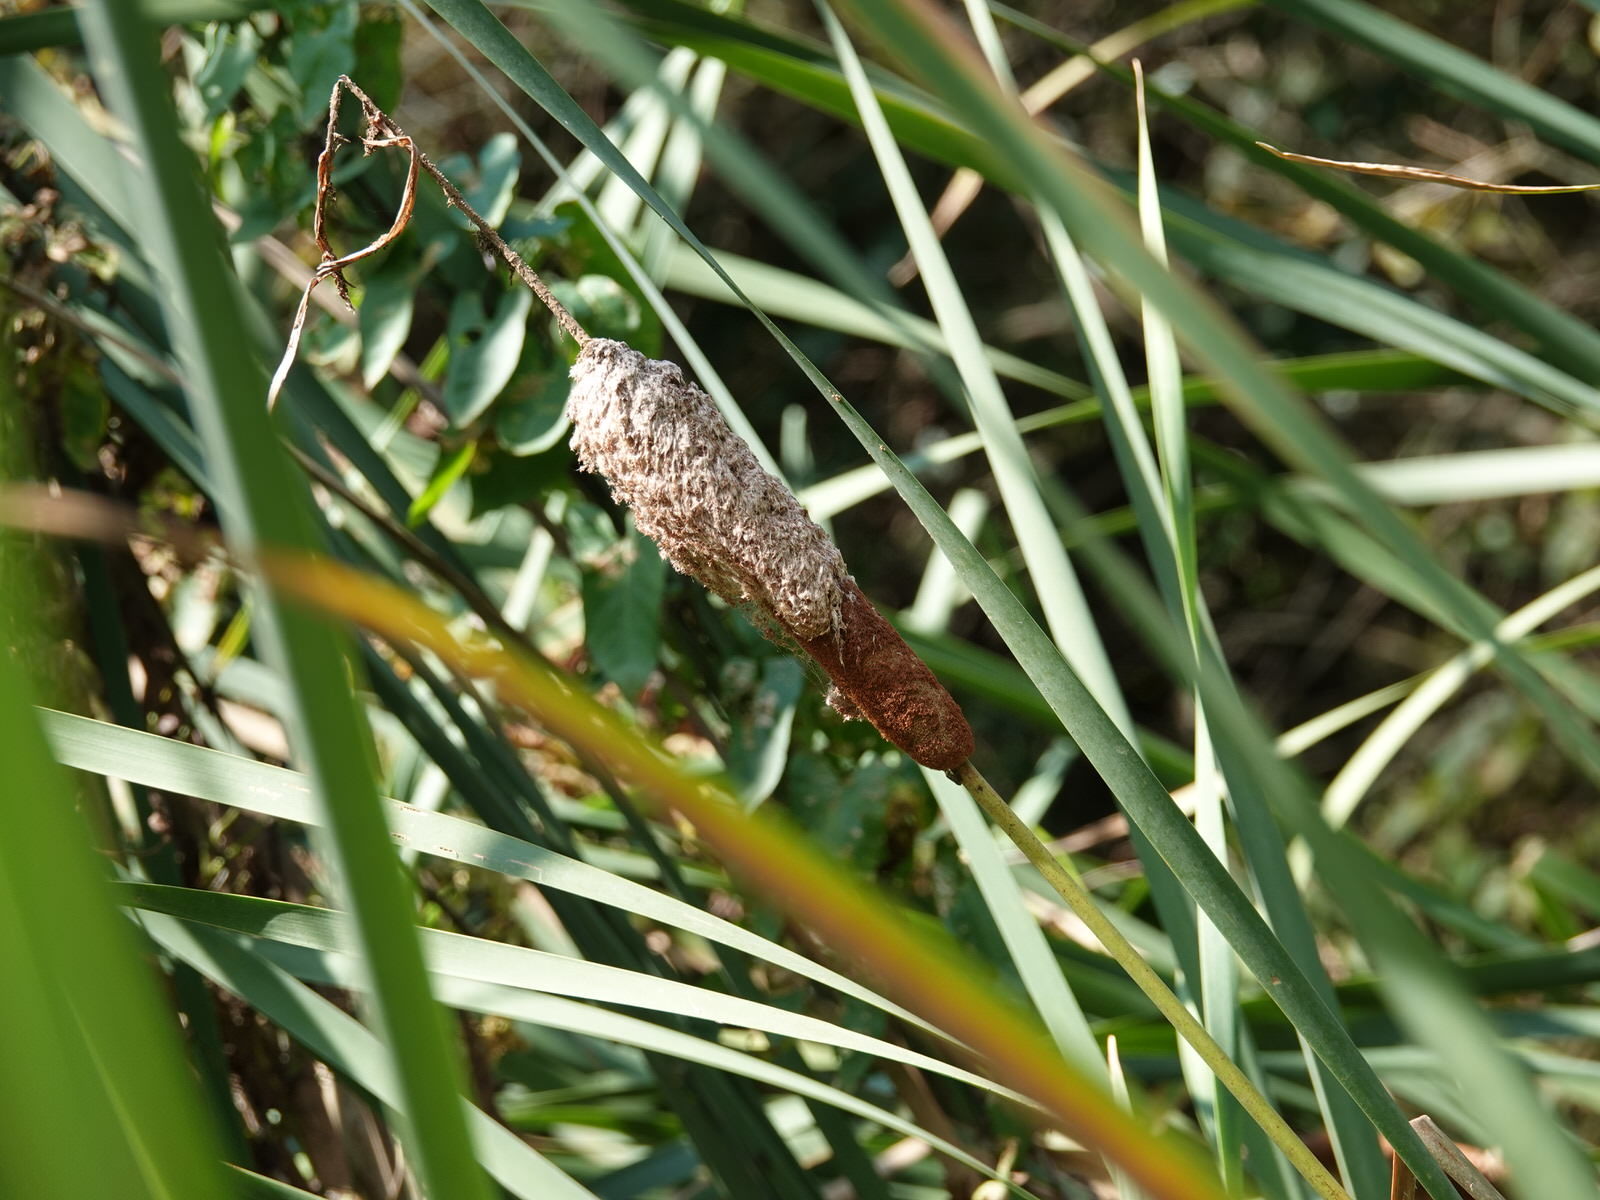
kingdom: Plantae
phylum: Tracheophyta
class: Liliopsida
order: Poales
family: Typhaceae
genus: Typha
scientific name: Typha orientalis
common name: Bullrush
